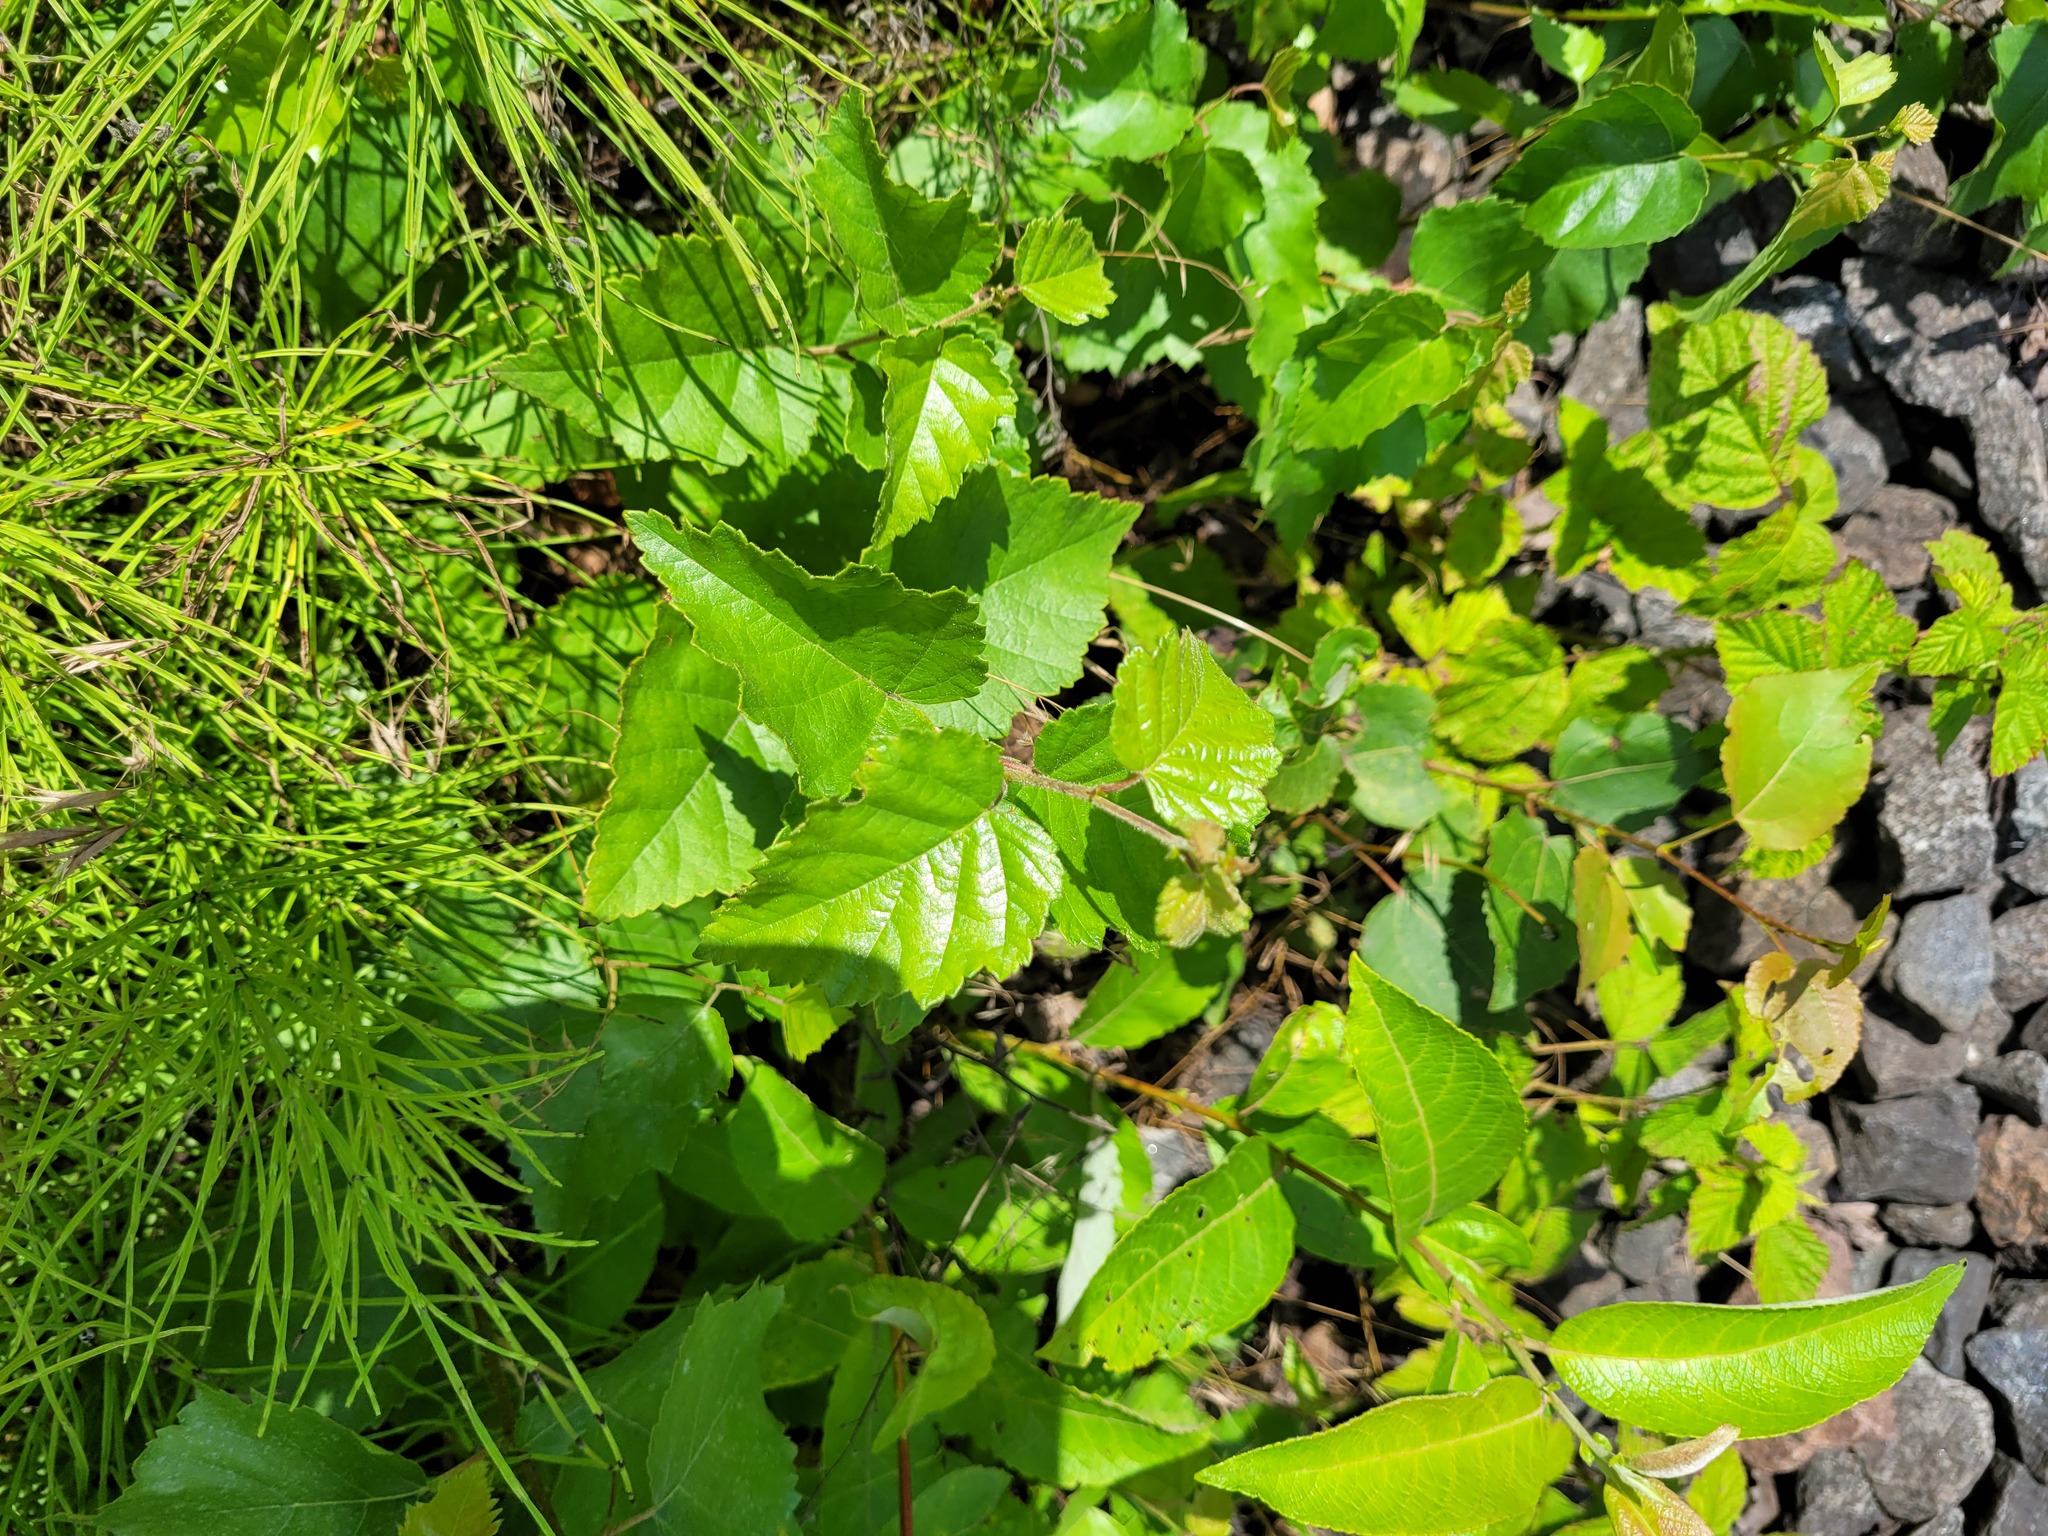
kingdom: Plantae
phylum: Tracheophyta
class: Magnoliopsida
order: Fagales
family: Betulaceae
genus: Betula
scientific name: Betula pubescens
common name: Downy birch
